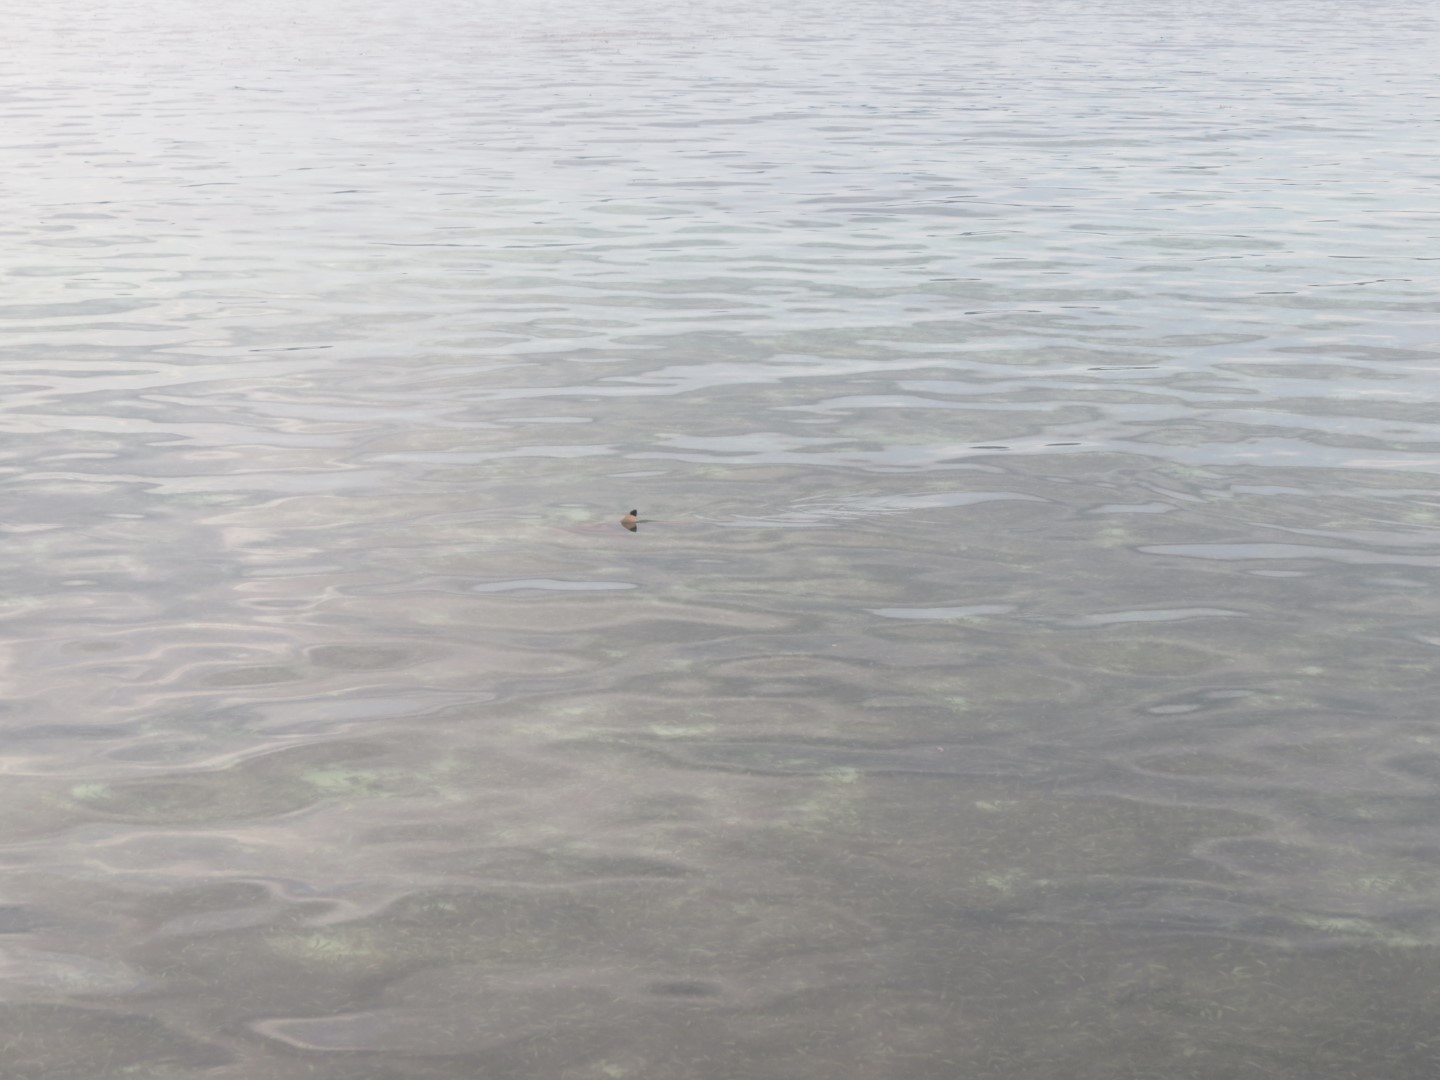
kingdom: Animalia
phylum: Chordata
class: Elasmobranchii
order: Carcharhiniformes
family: Carcharhinidae
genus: Carcharhinus
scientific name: Carcharhinus melanopterus
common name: Blacktip reef shark
